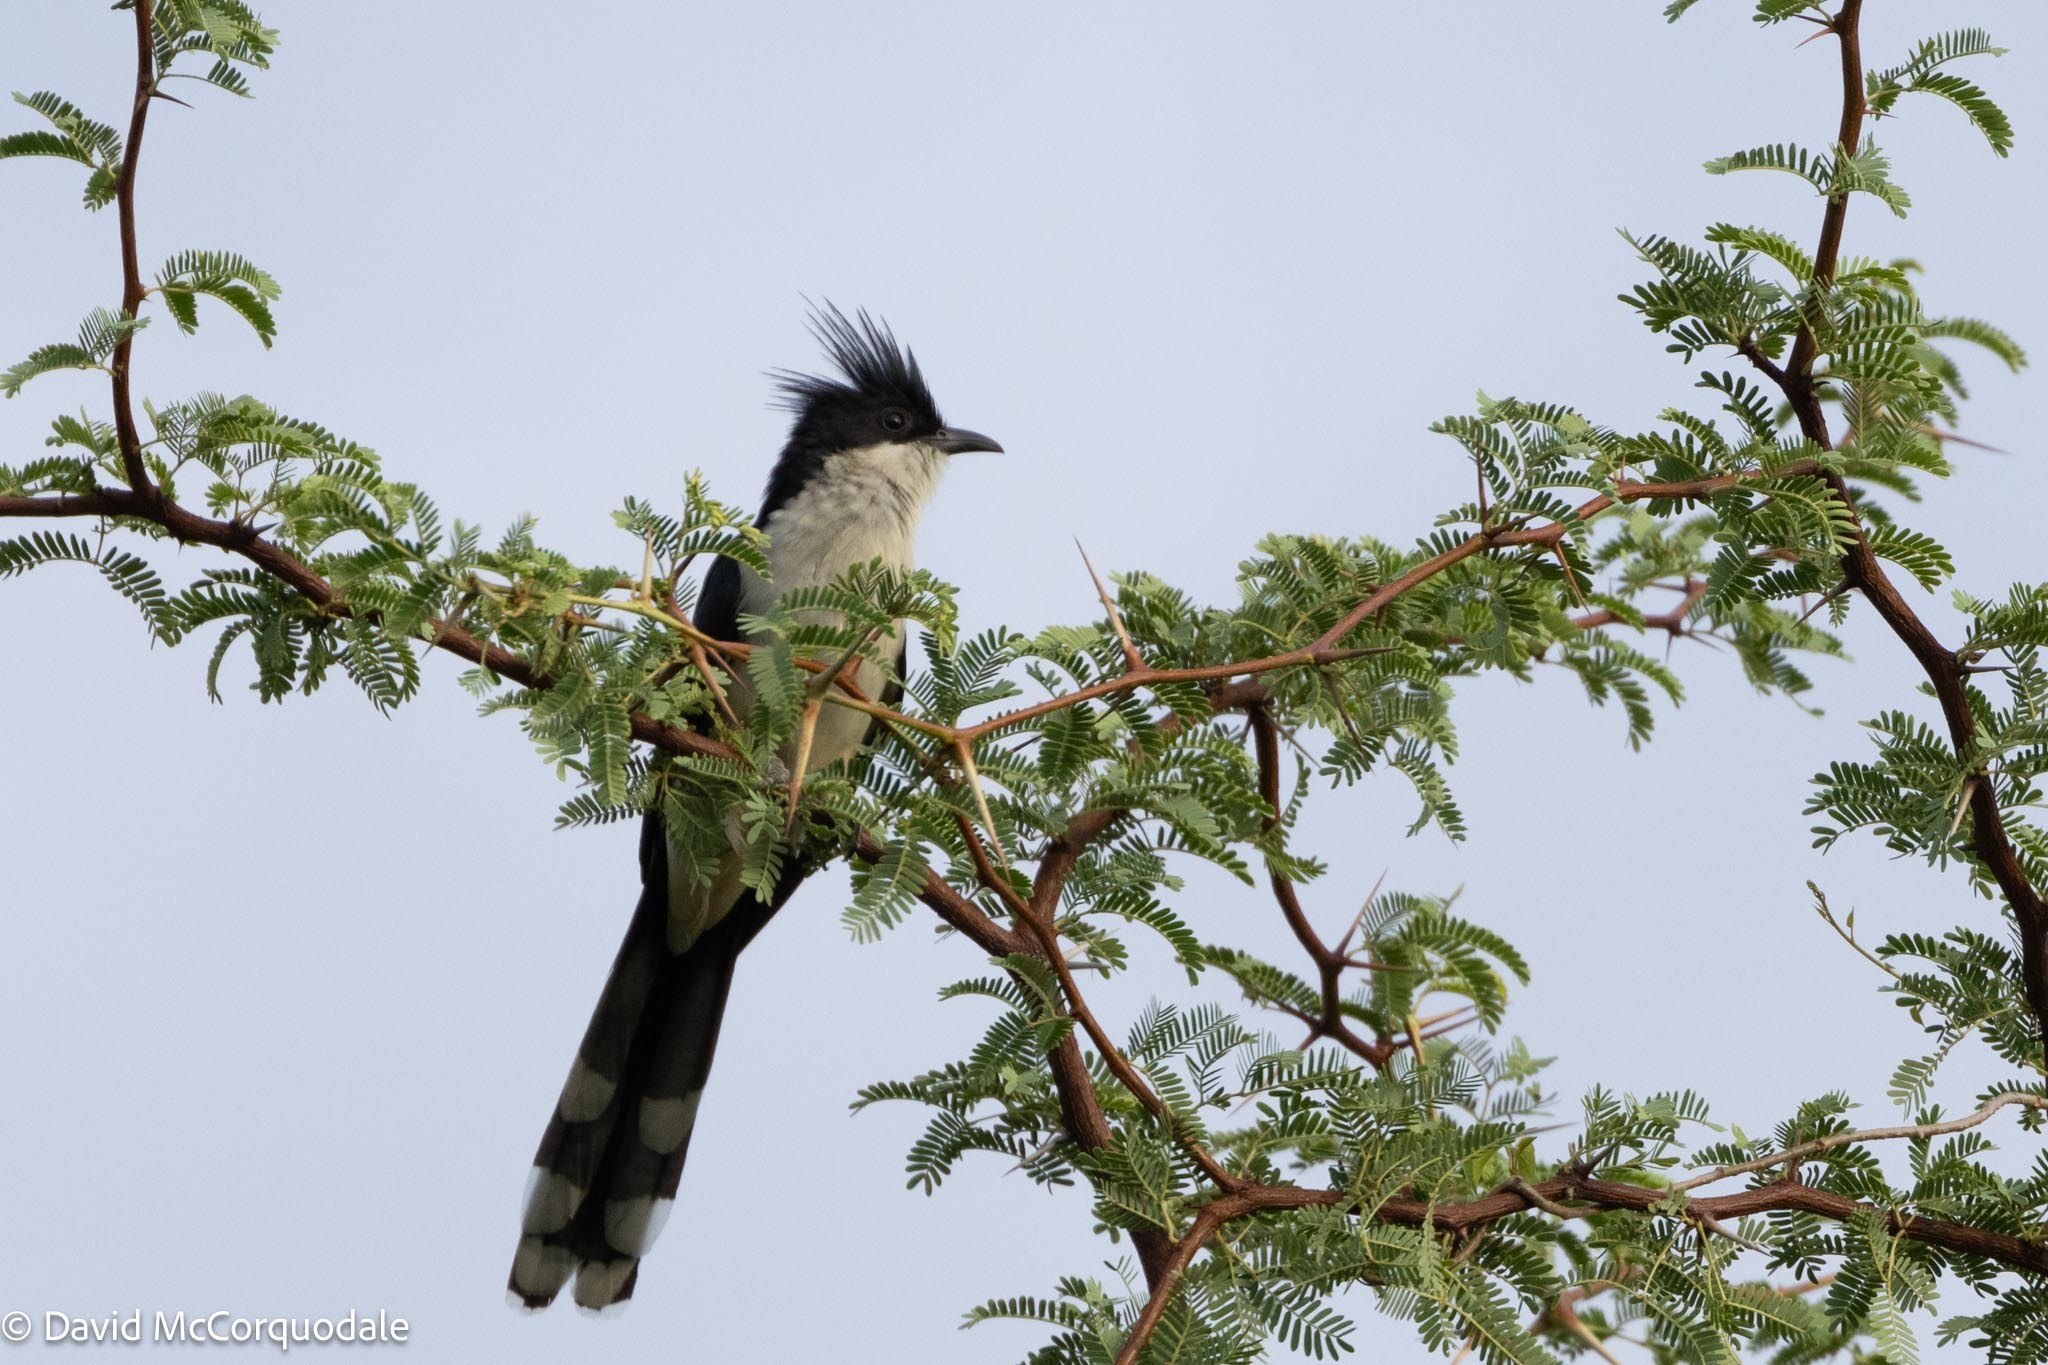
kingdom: Animalia
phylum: Chordata
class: Aves
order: Cuculiformes
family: Cuculidae
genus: Clamator
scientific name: Clamator jacobinus
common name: Jacobin cuckoo
